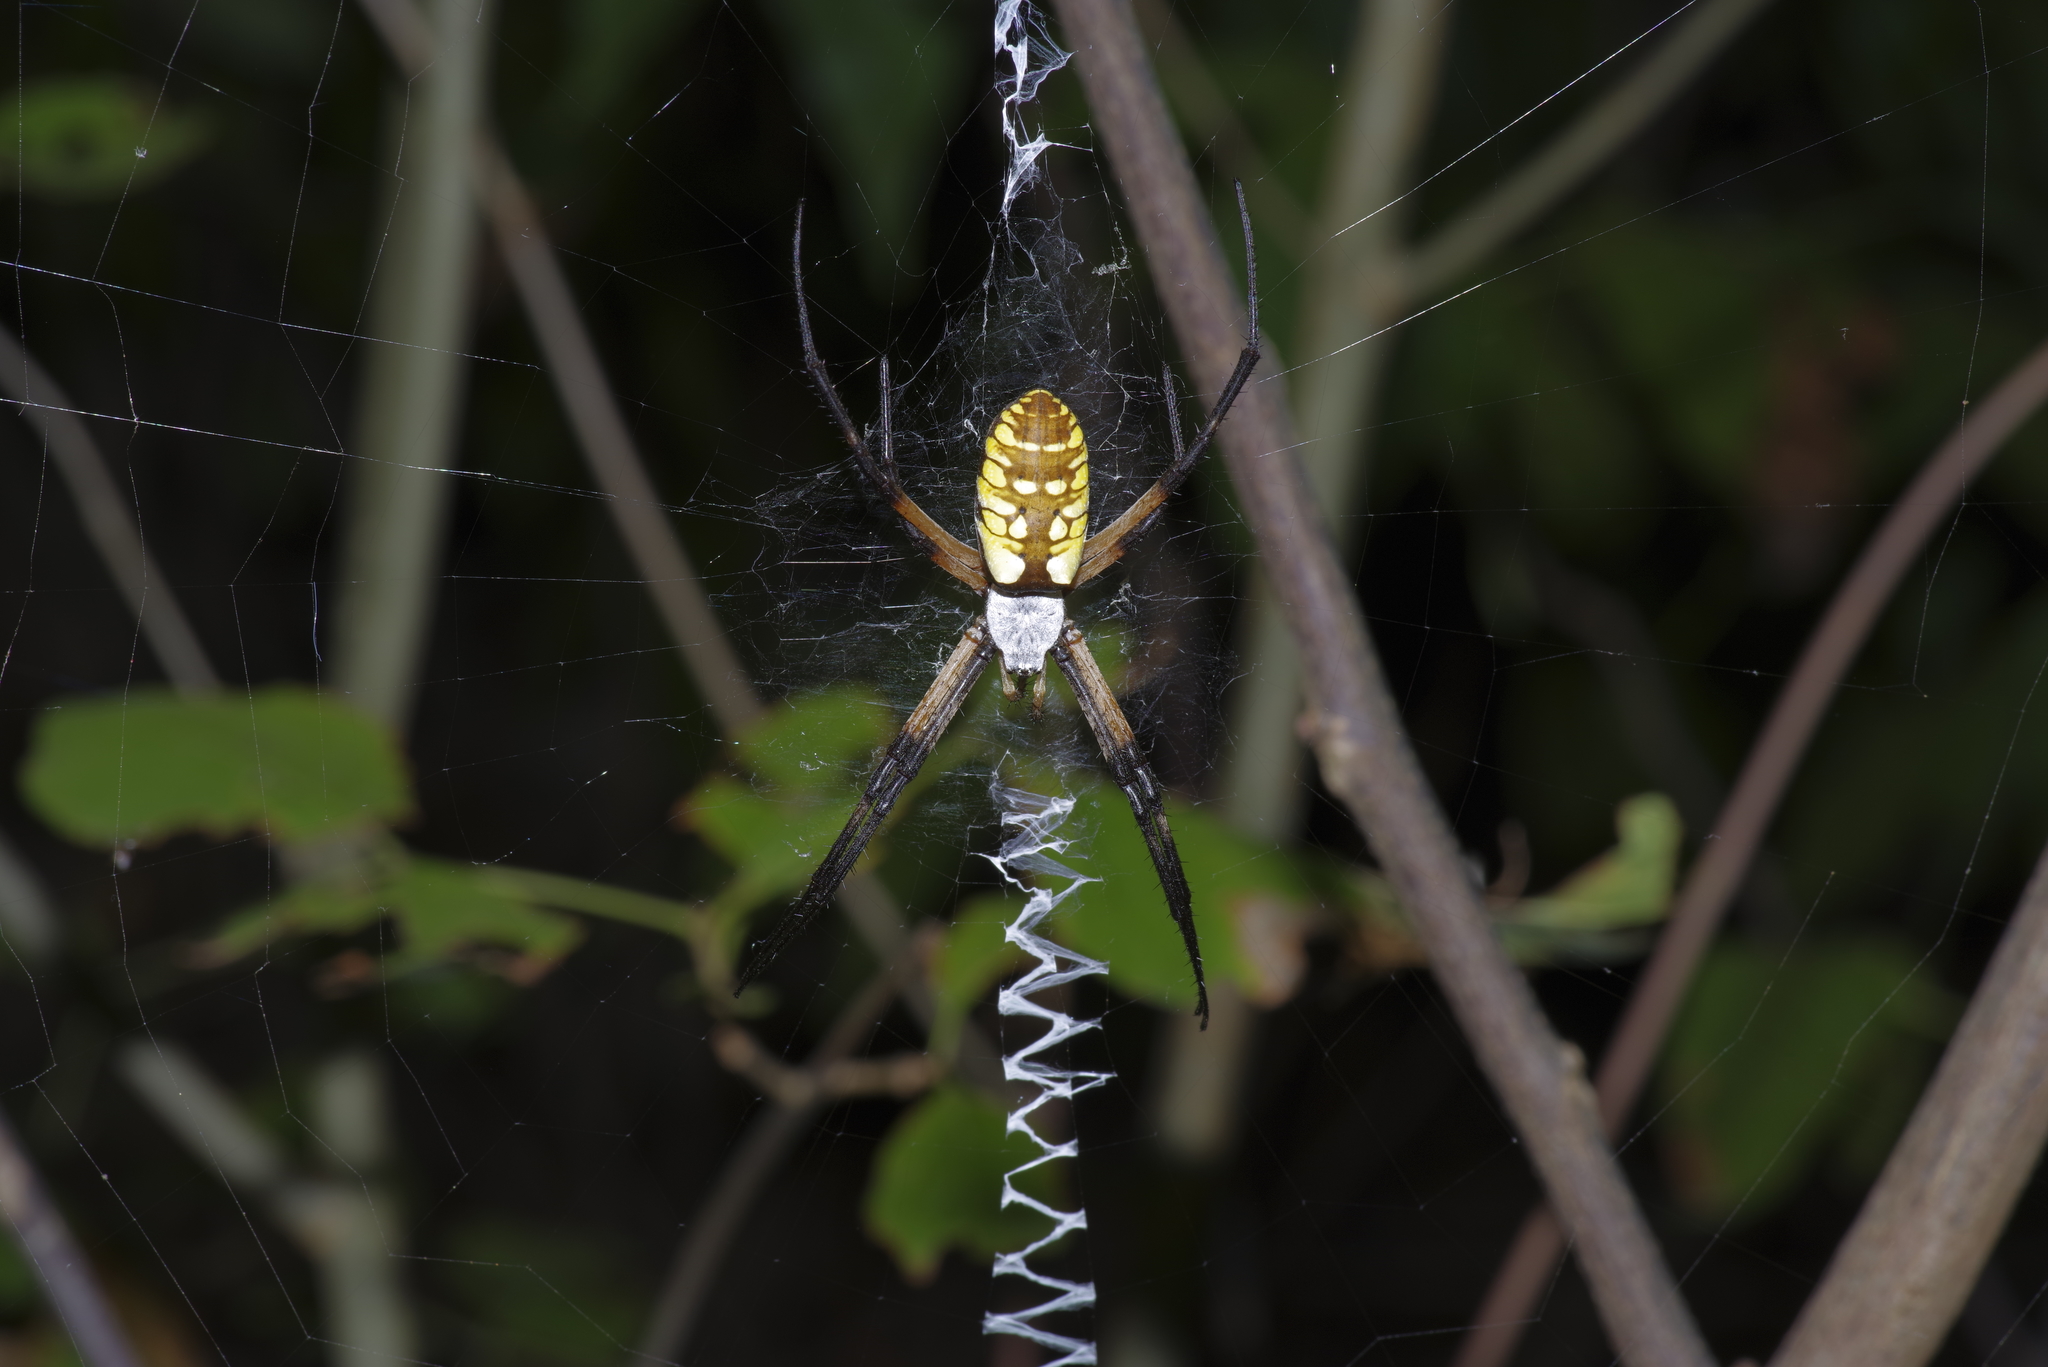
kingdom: Animalia
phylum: Arthropoda
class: Arachnida
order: Araneae
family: Araneidae
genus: Argiope
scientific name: Argiope aurantia
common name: Orb weavers
